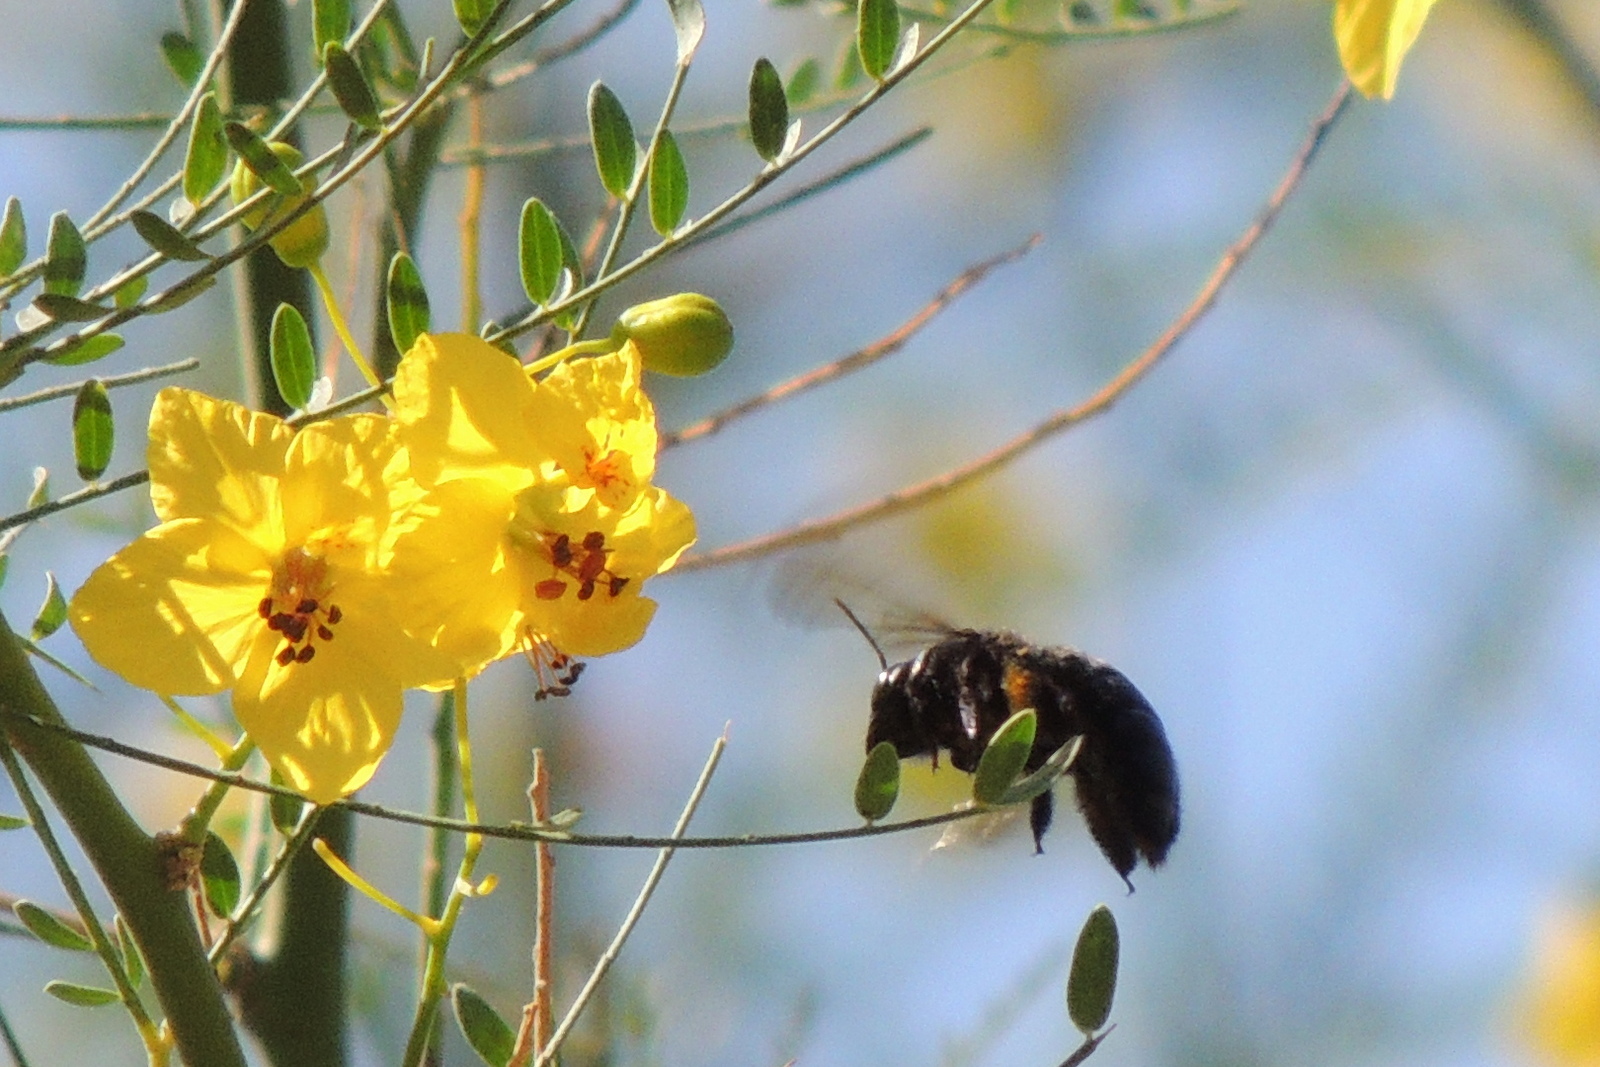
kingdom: Animalia
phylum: Arthropoda
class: Insecta
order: Hymenoptera
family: Apidae
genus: Xylocopa
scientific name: Xylocopa
